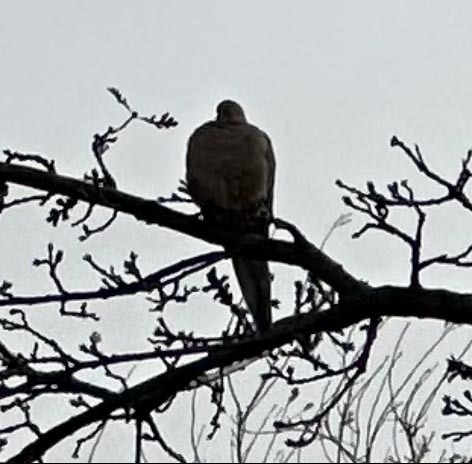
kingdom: Animalia
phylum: Chordata
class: Aves
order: Columbiformes
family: Columbidae
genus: Zenaida
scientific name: Zenaida macroura
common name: Mourning dove
